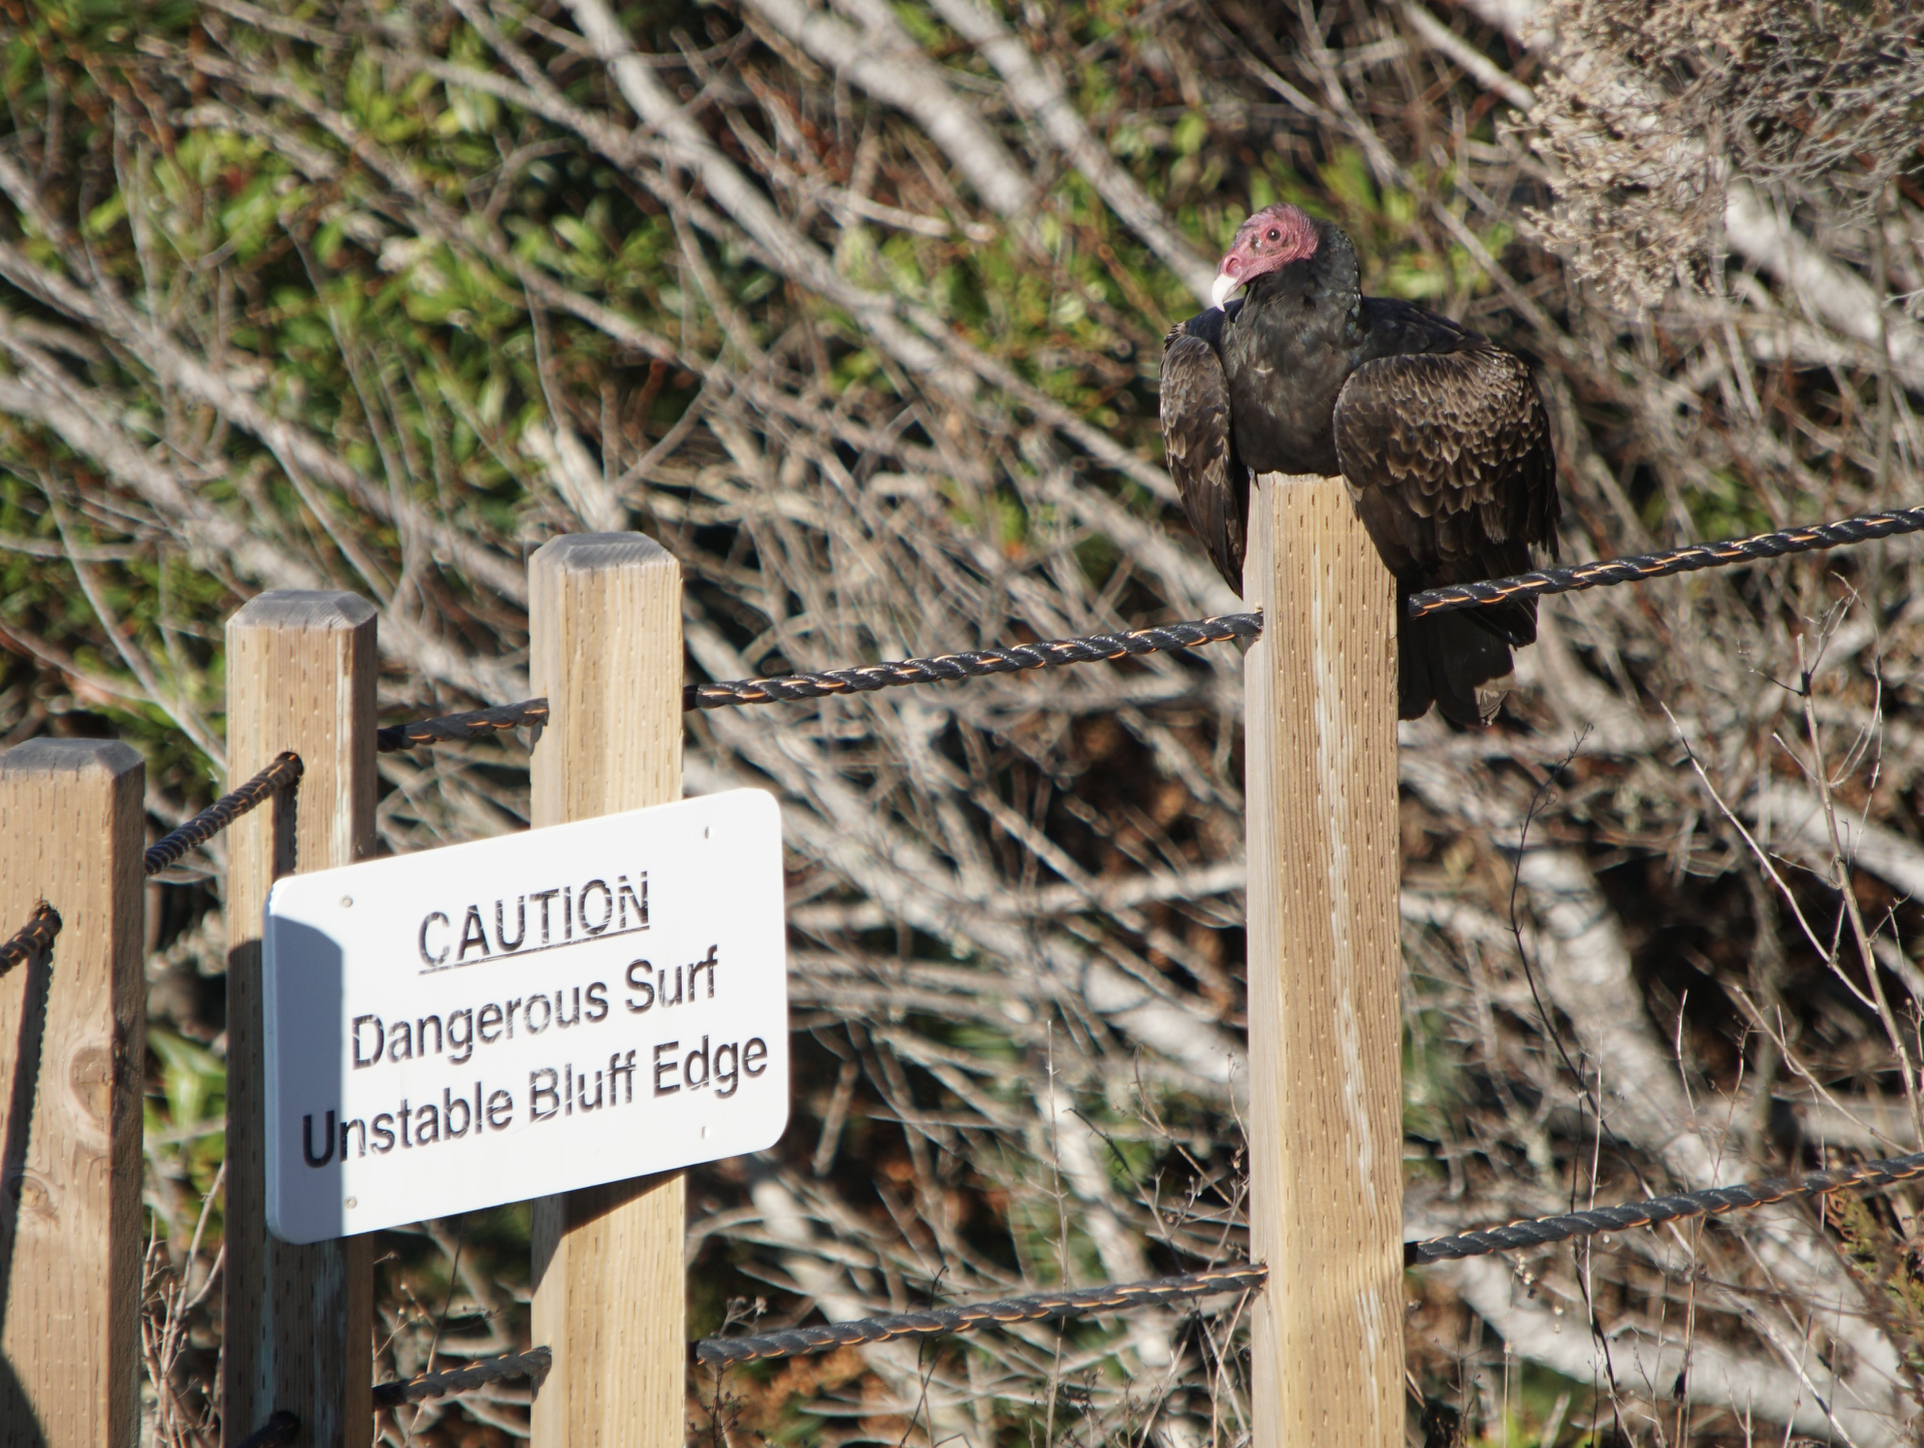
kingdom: Animalia
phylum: Chordata
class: Aves
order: Accipitriformes
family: Cathartidae
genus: Cathartes
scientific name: Cathartes aura
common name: Turkey vulture
